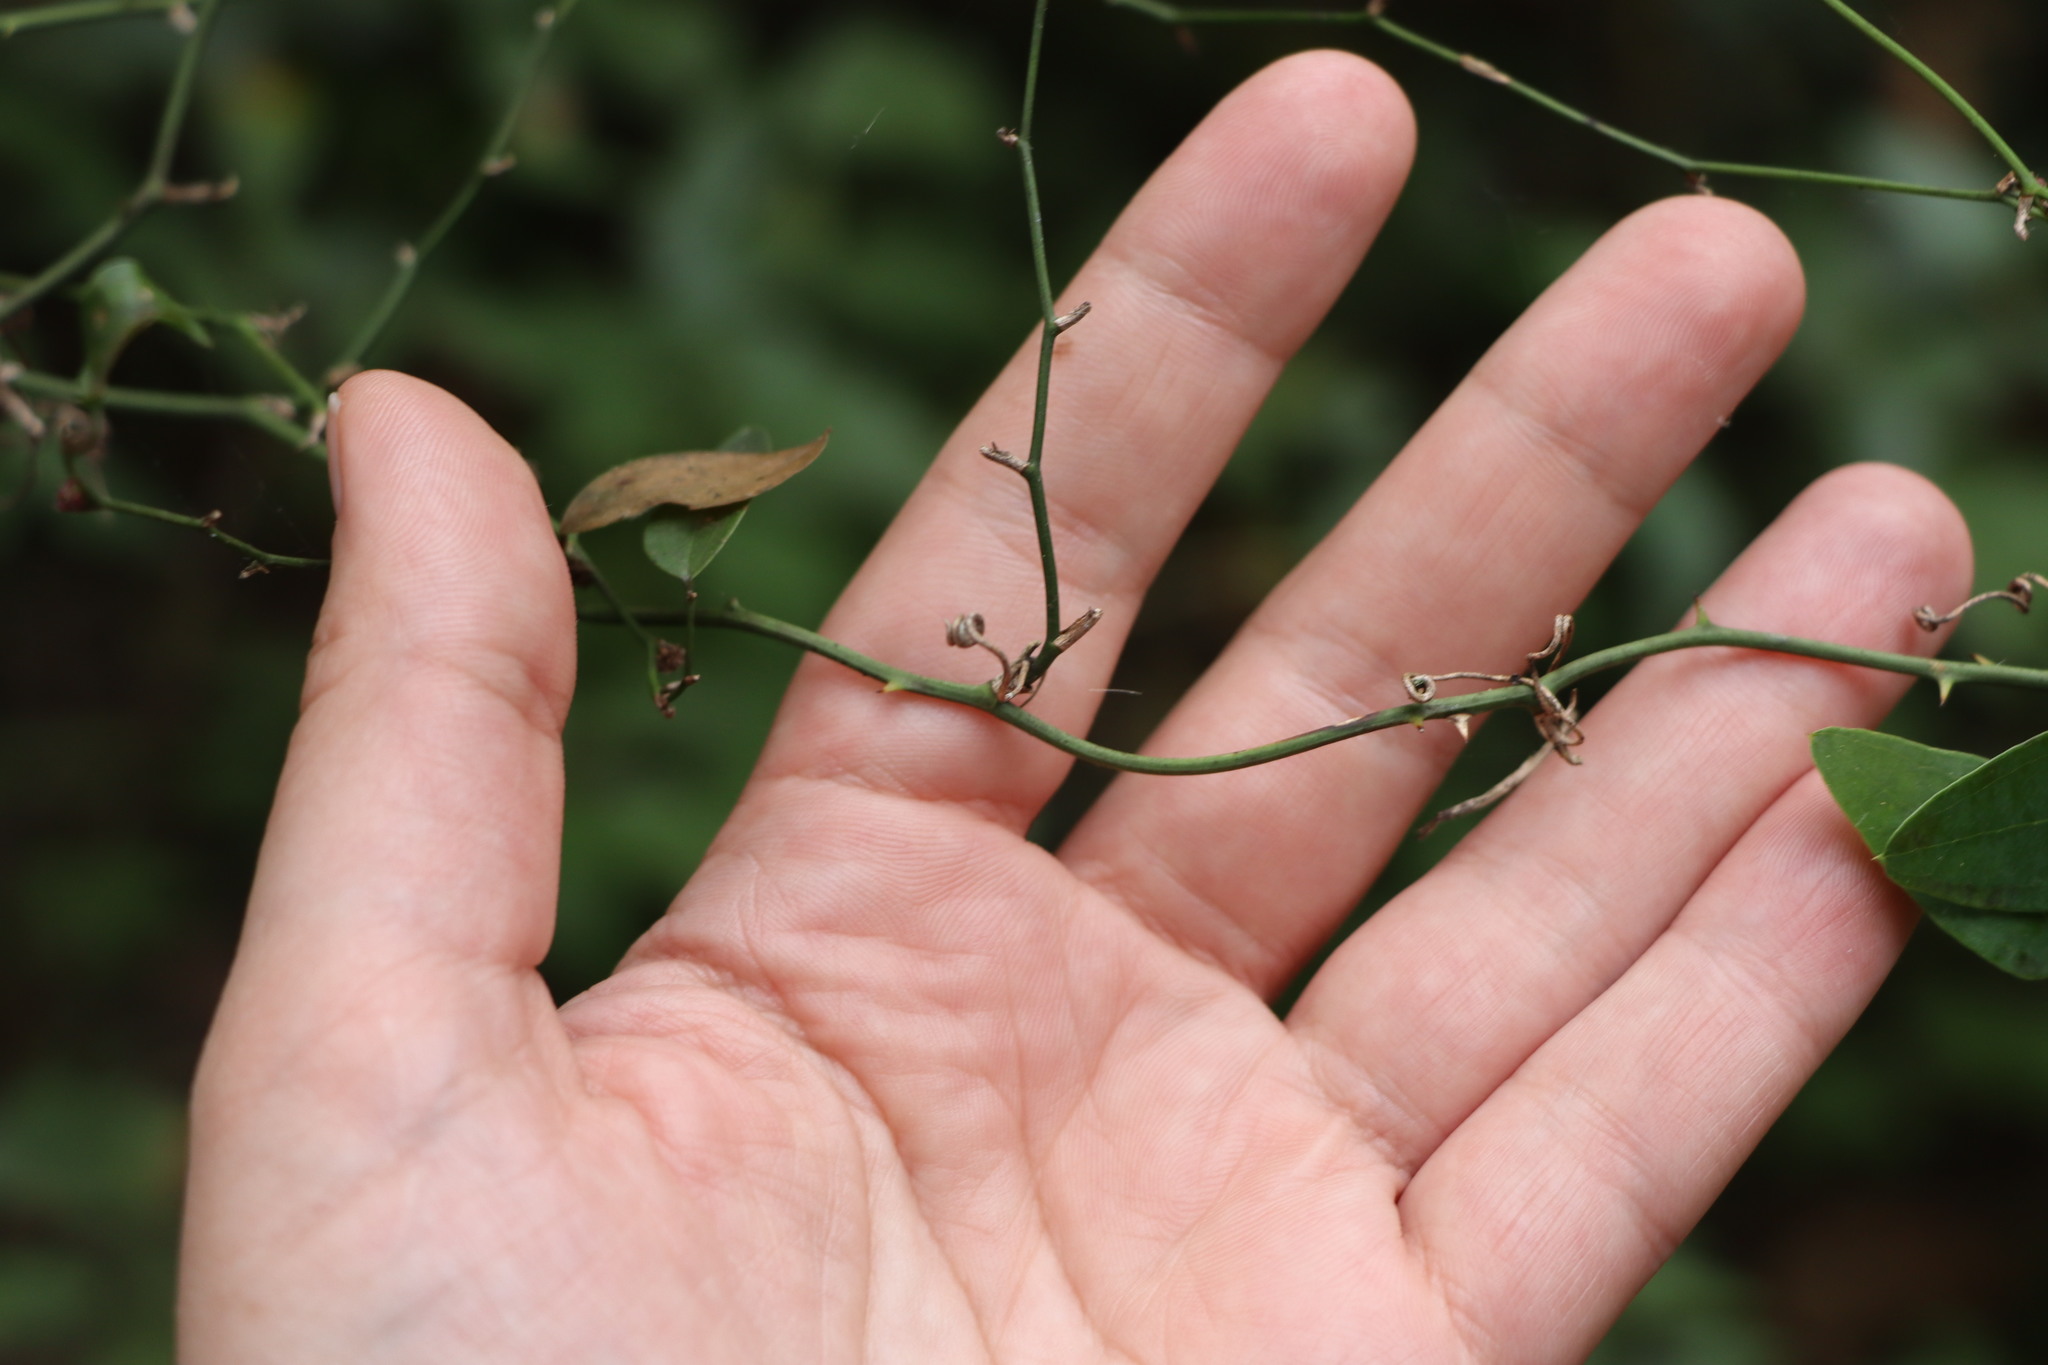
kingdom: Plantae
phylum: Tracheophyta
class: Liliopsida
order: Liliales
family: Smilacaceae
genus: Smilax
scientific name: Smilax campestris
